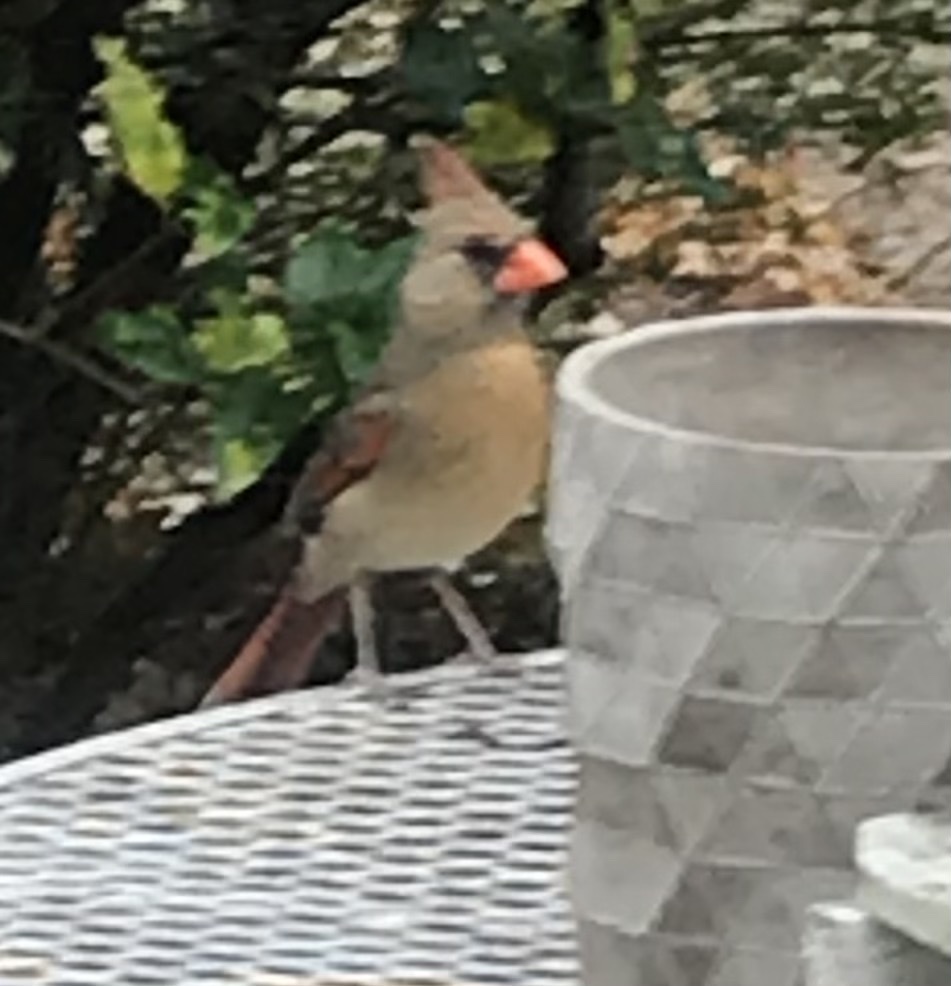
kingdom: Animalia
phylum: Chordata
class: Aves
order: Passeriformes
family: Cardinalidae
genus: Cardinalis
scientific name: Cardinalis cardinalis
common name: Northern cardinal
